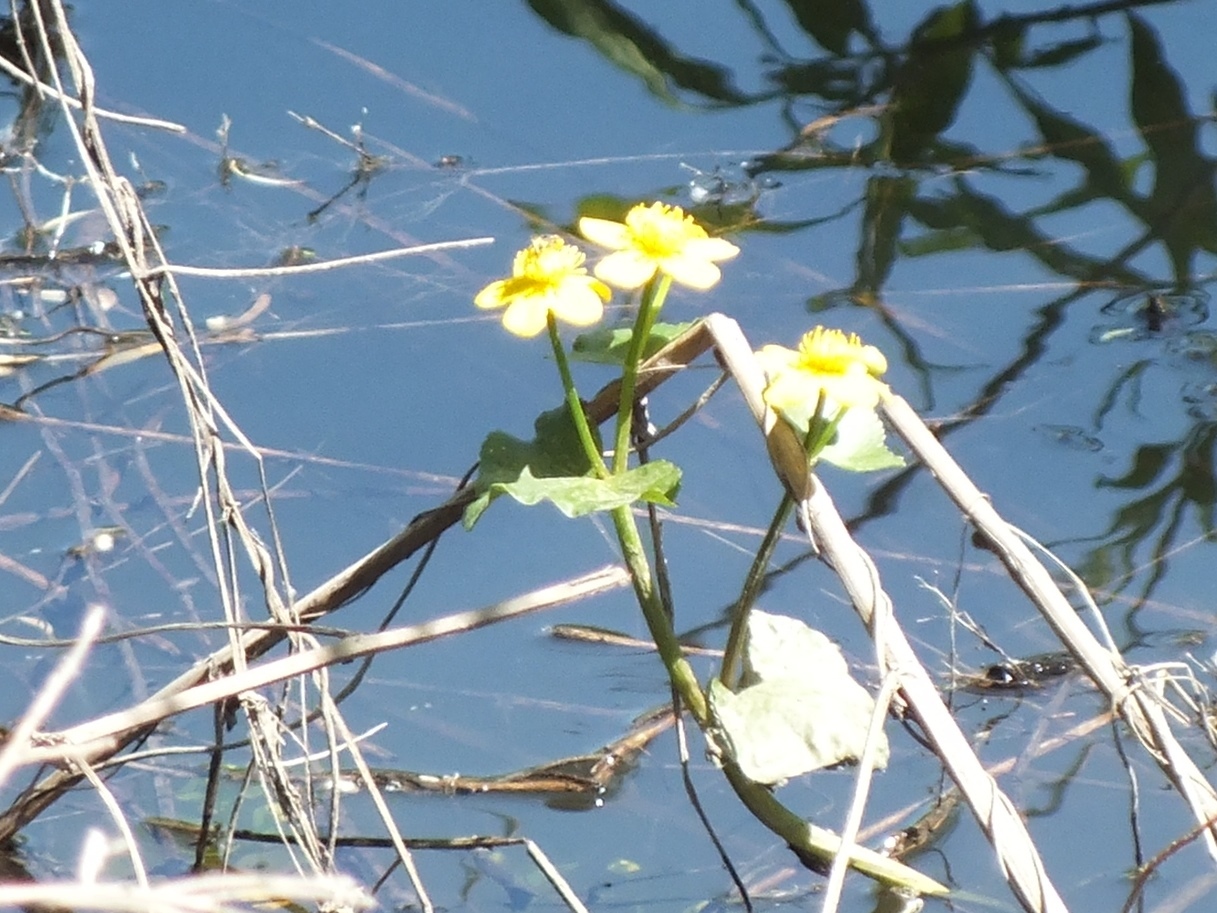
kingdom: Plantae
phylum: Tracheophyta
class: Magnoliopsida
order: Ranunculales
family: Ranunculaceae
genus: Caltha
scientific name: Caltha palustris
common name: Marsh marigold
